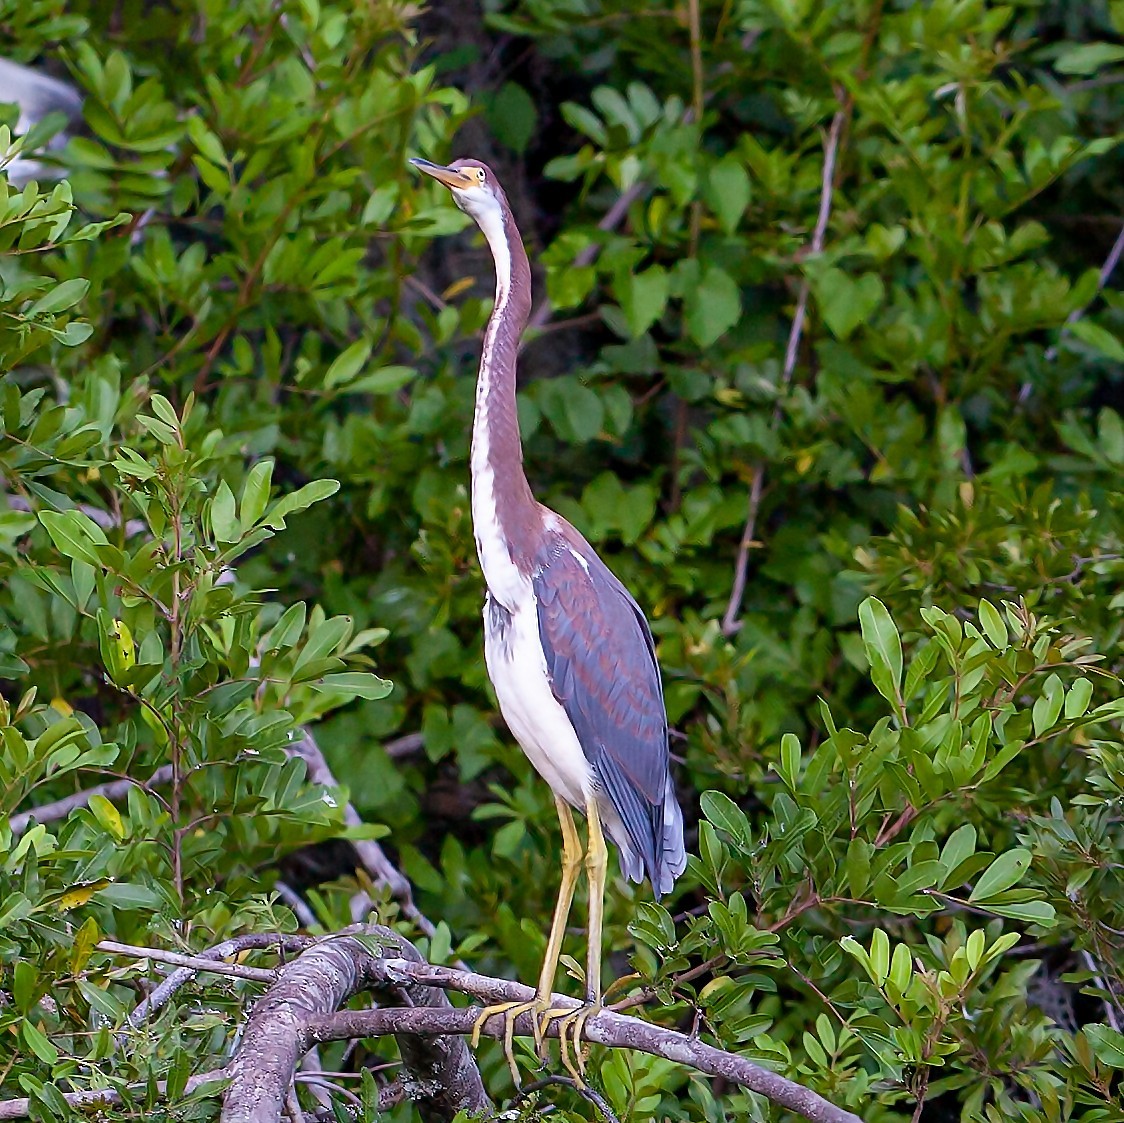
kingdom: Animalia
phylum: Chordata
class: Aves
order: Pelecaniformes
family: Ardeidae
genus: Egretta
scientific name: Egretta tricolor
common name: Tricolored heron
